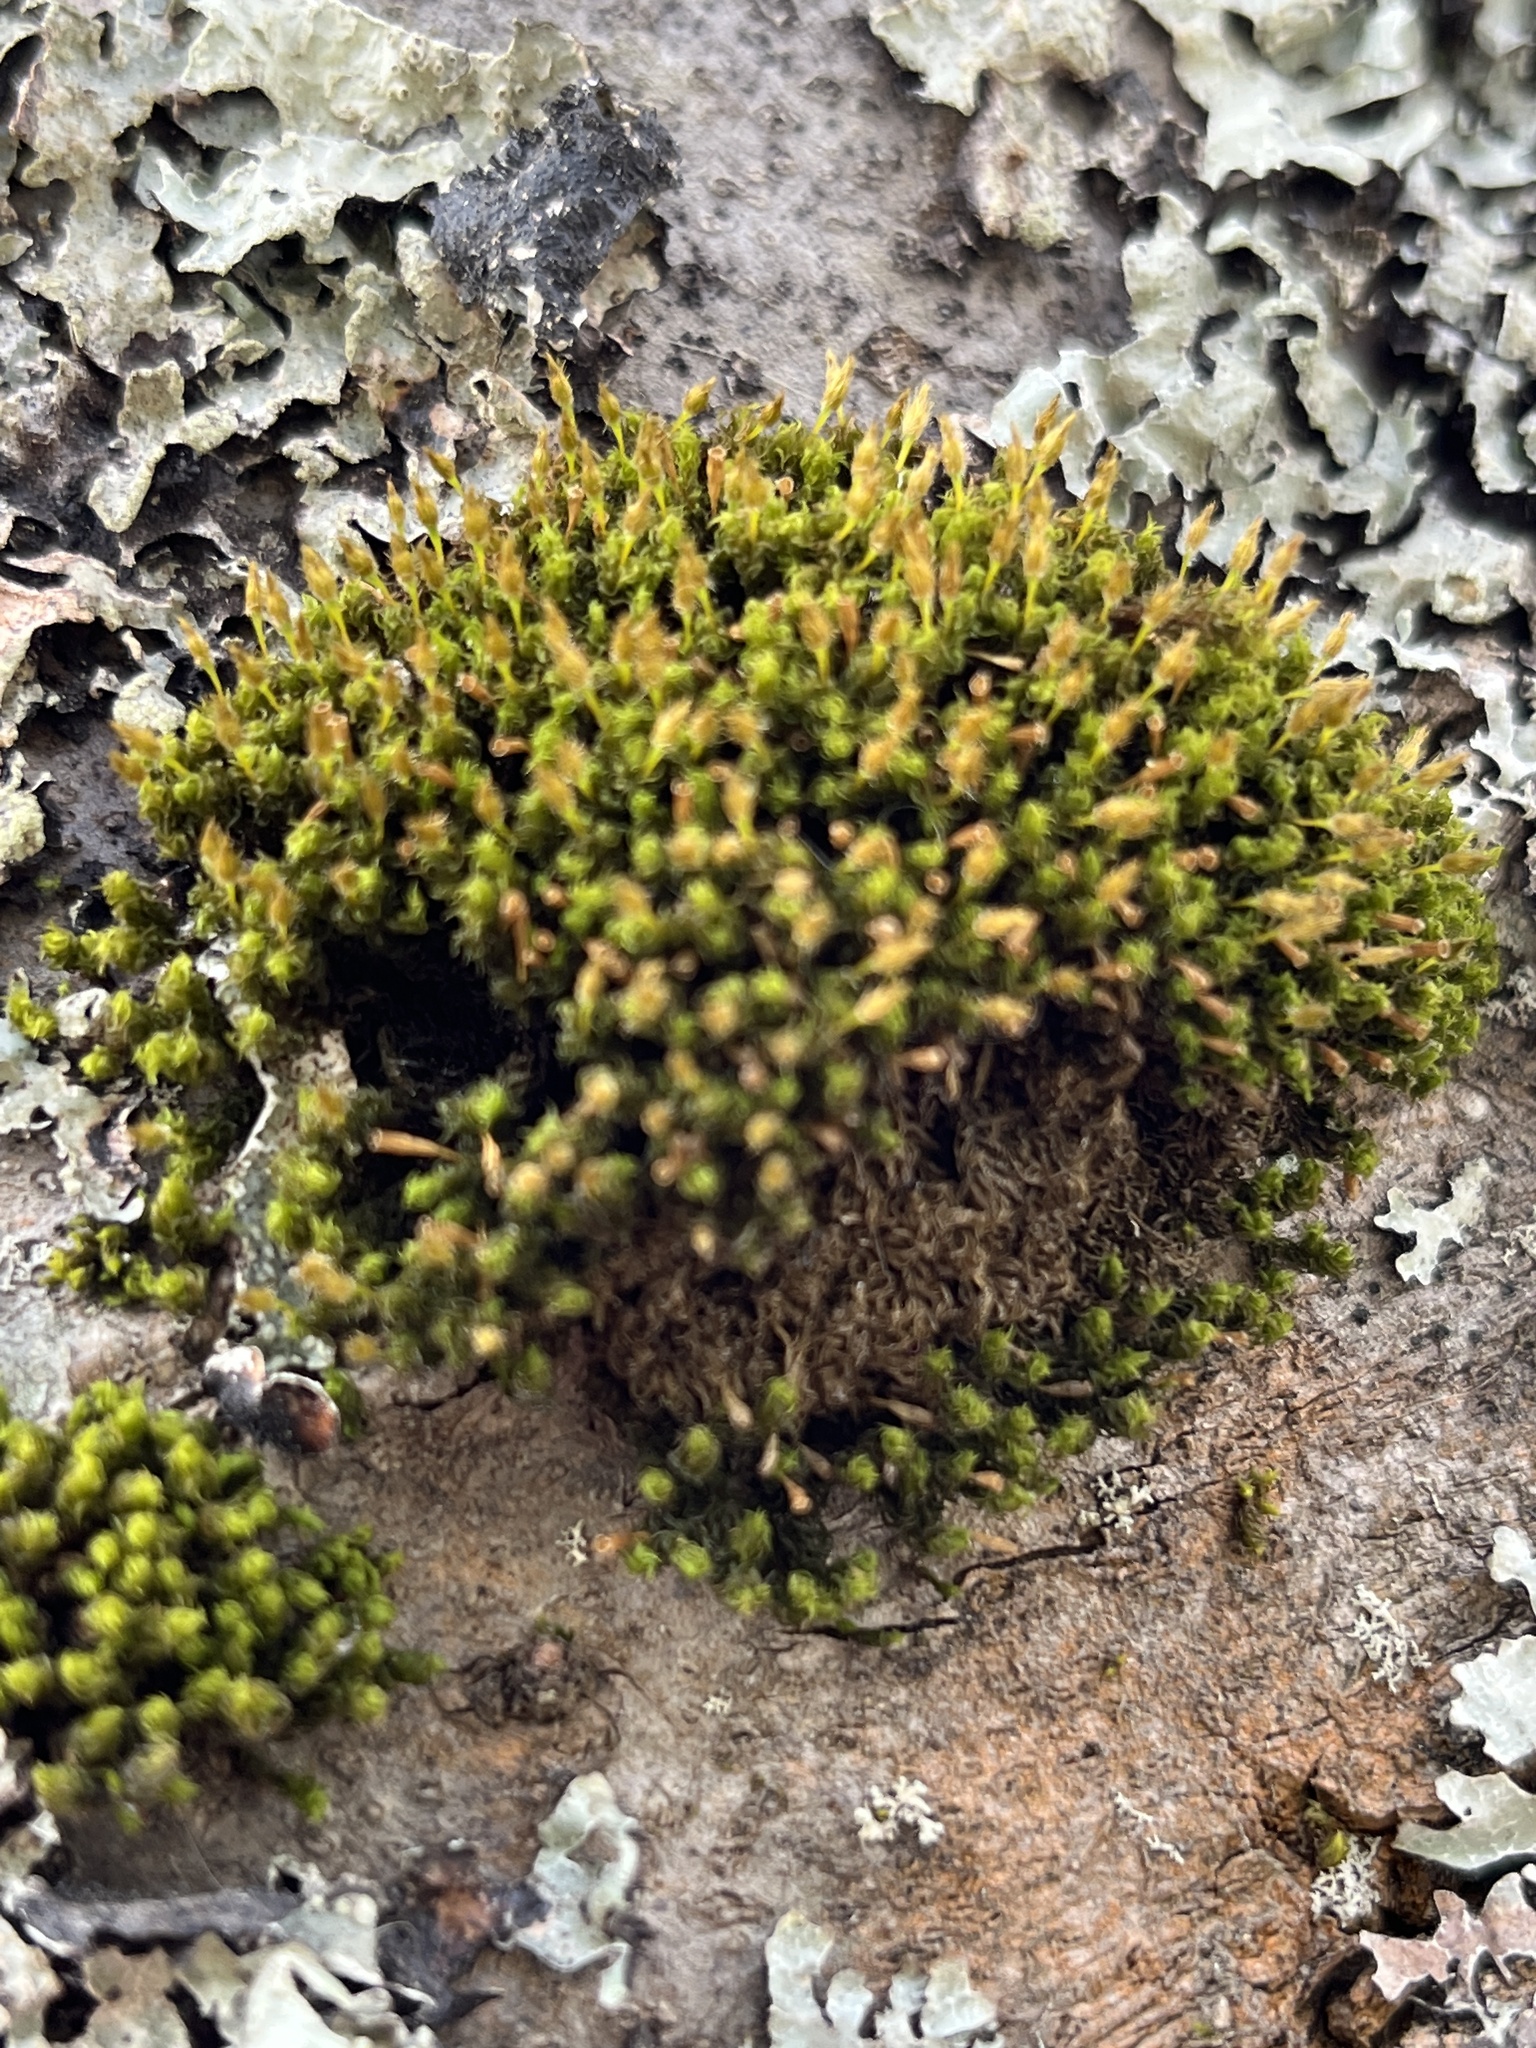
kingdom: Plantae
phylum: Bryophyta
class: Bryopsida
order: Orthotrichales
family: Orthotrichaceae
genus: Ulota
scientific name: Ulota crispa
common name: Crisped pincushion moss
